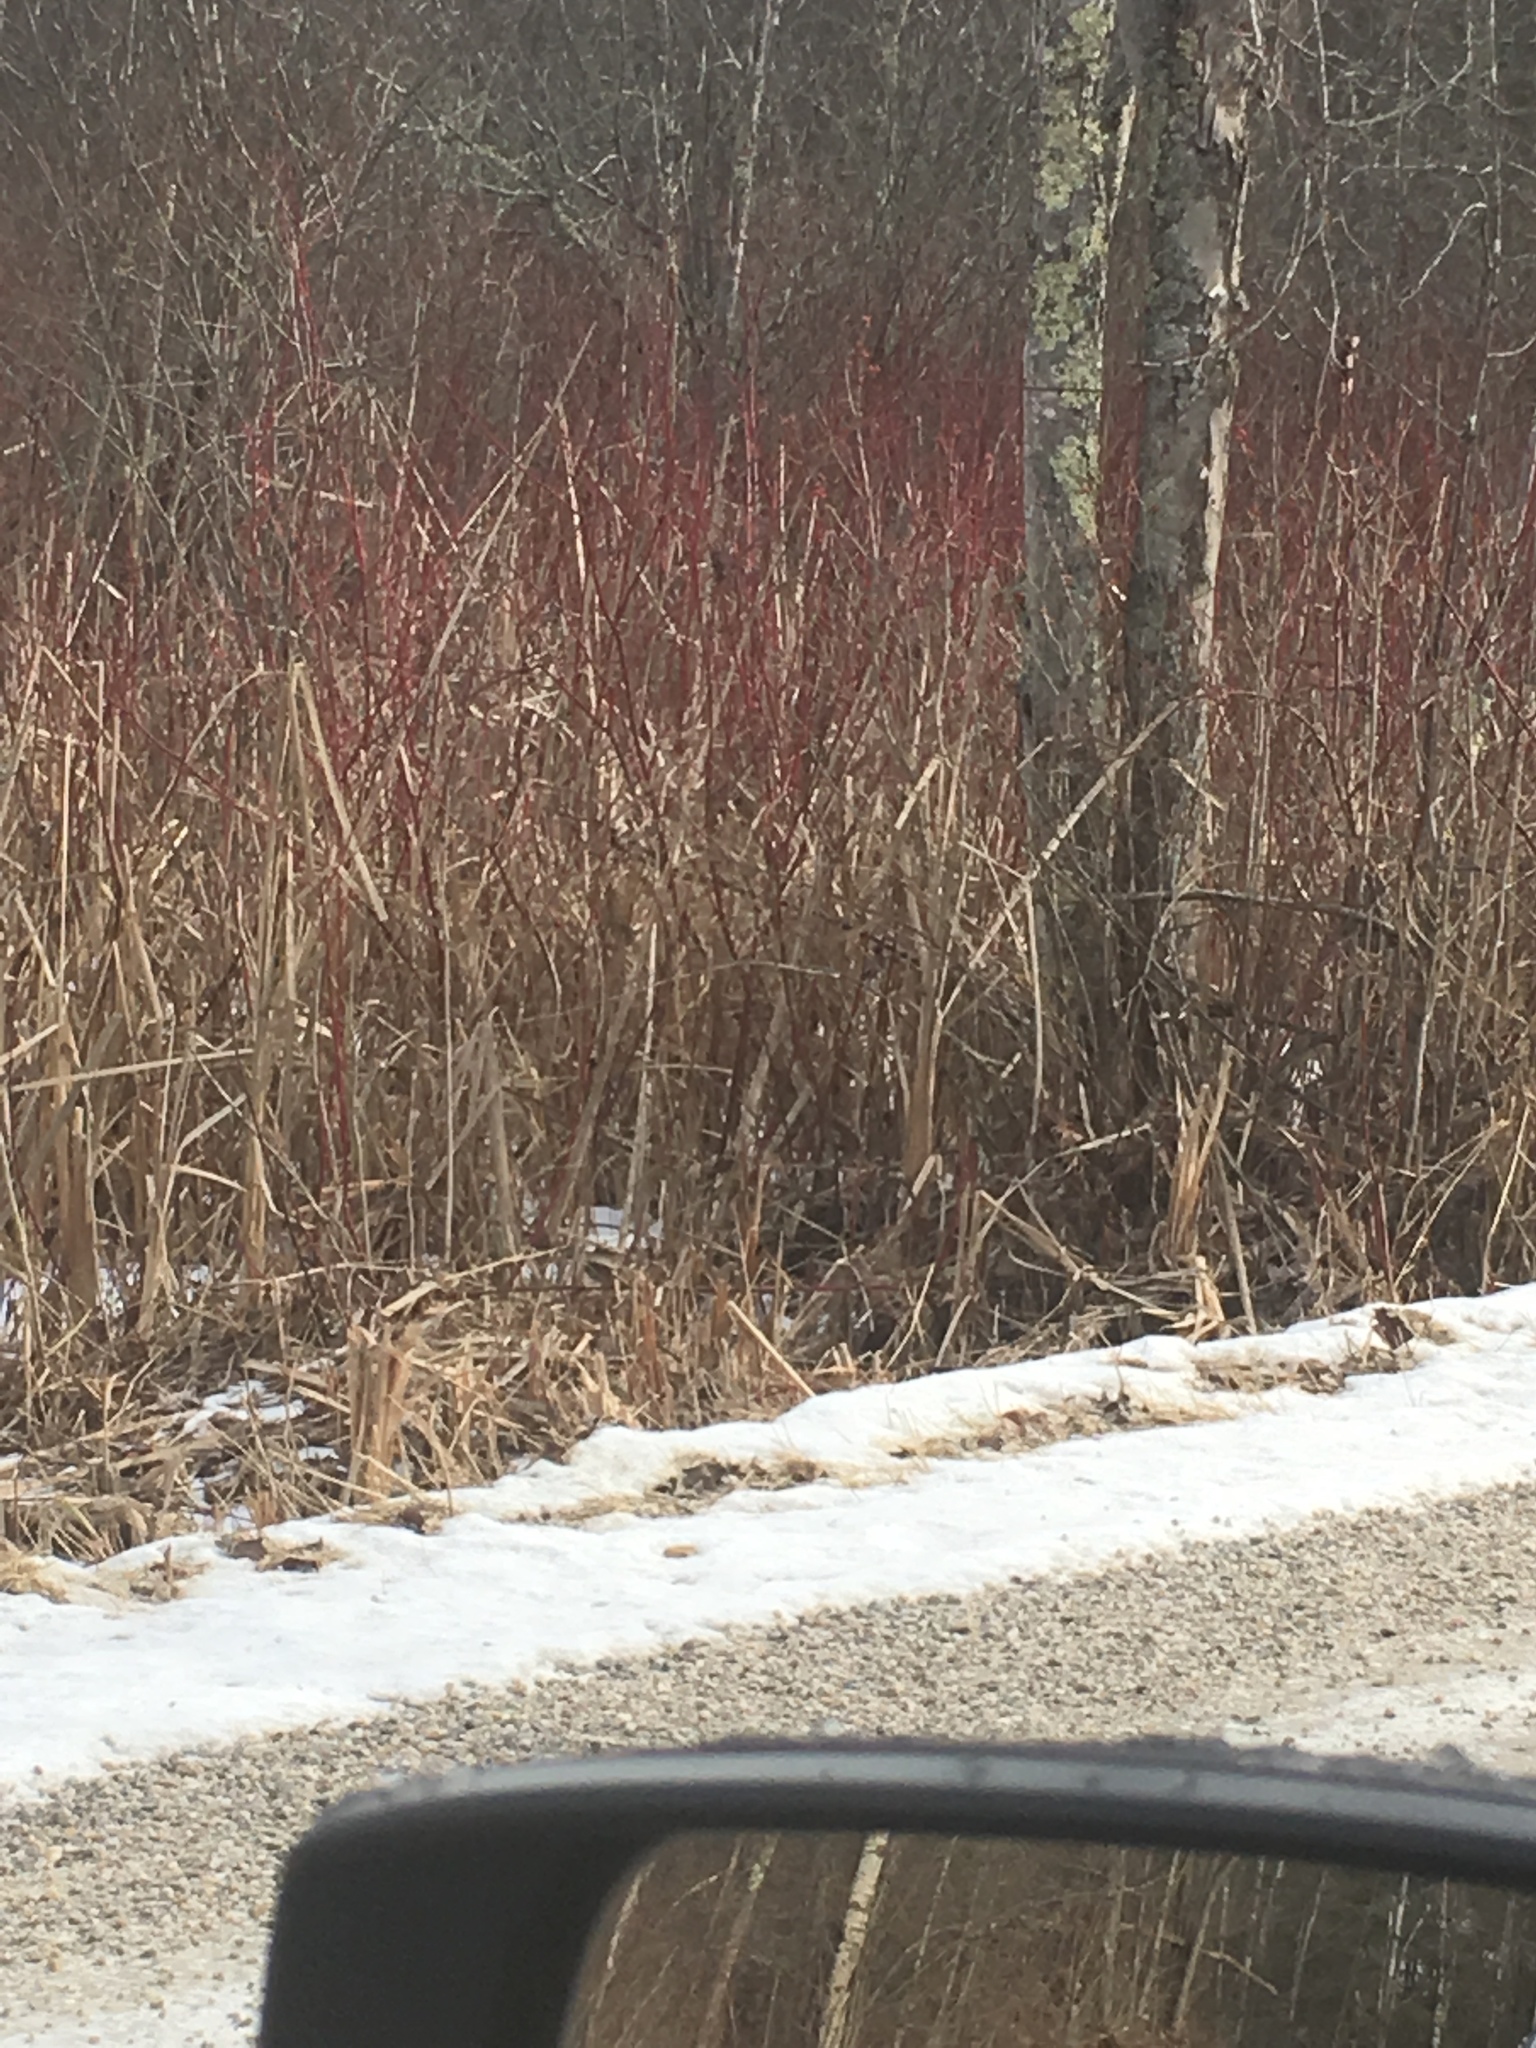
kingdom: Plantae
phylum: Tracheophyta
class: Magnoliopsida
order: Cornales
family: Cornaceae
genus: Cornus
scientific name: Cornus sericea
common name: Red-osier dogwood
